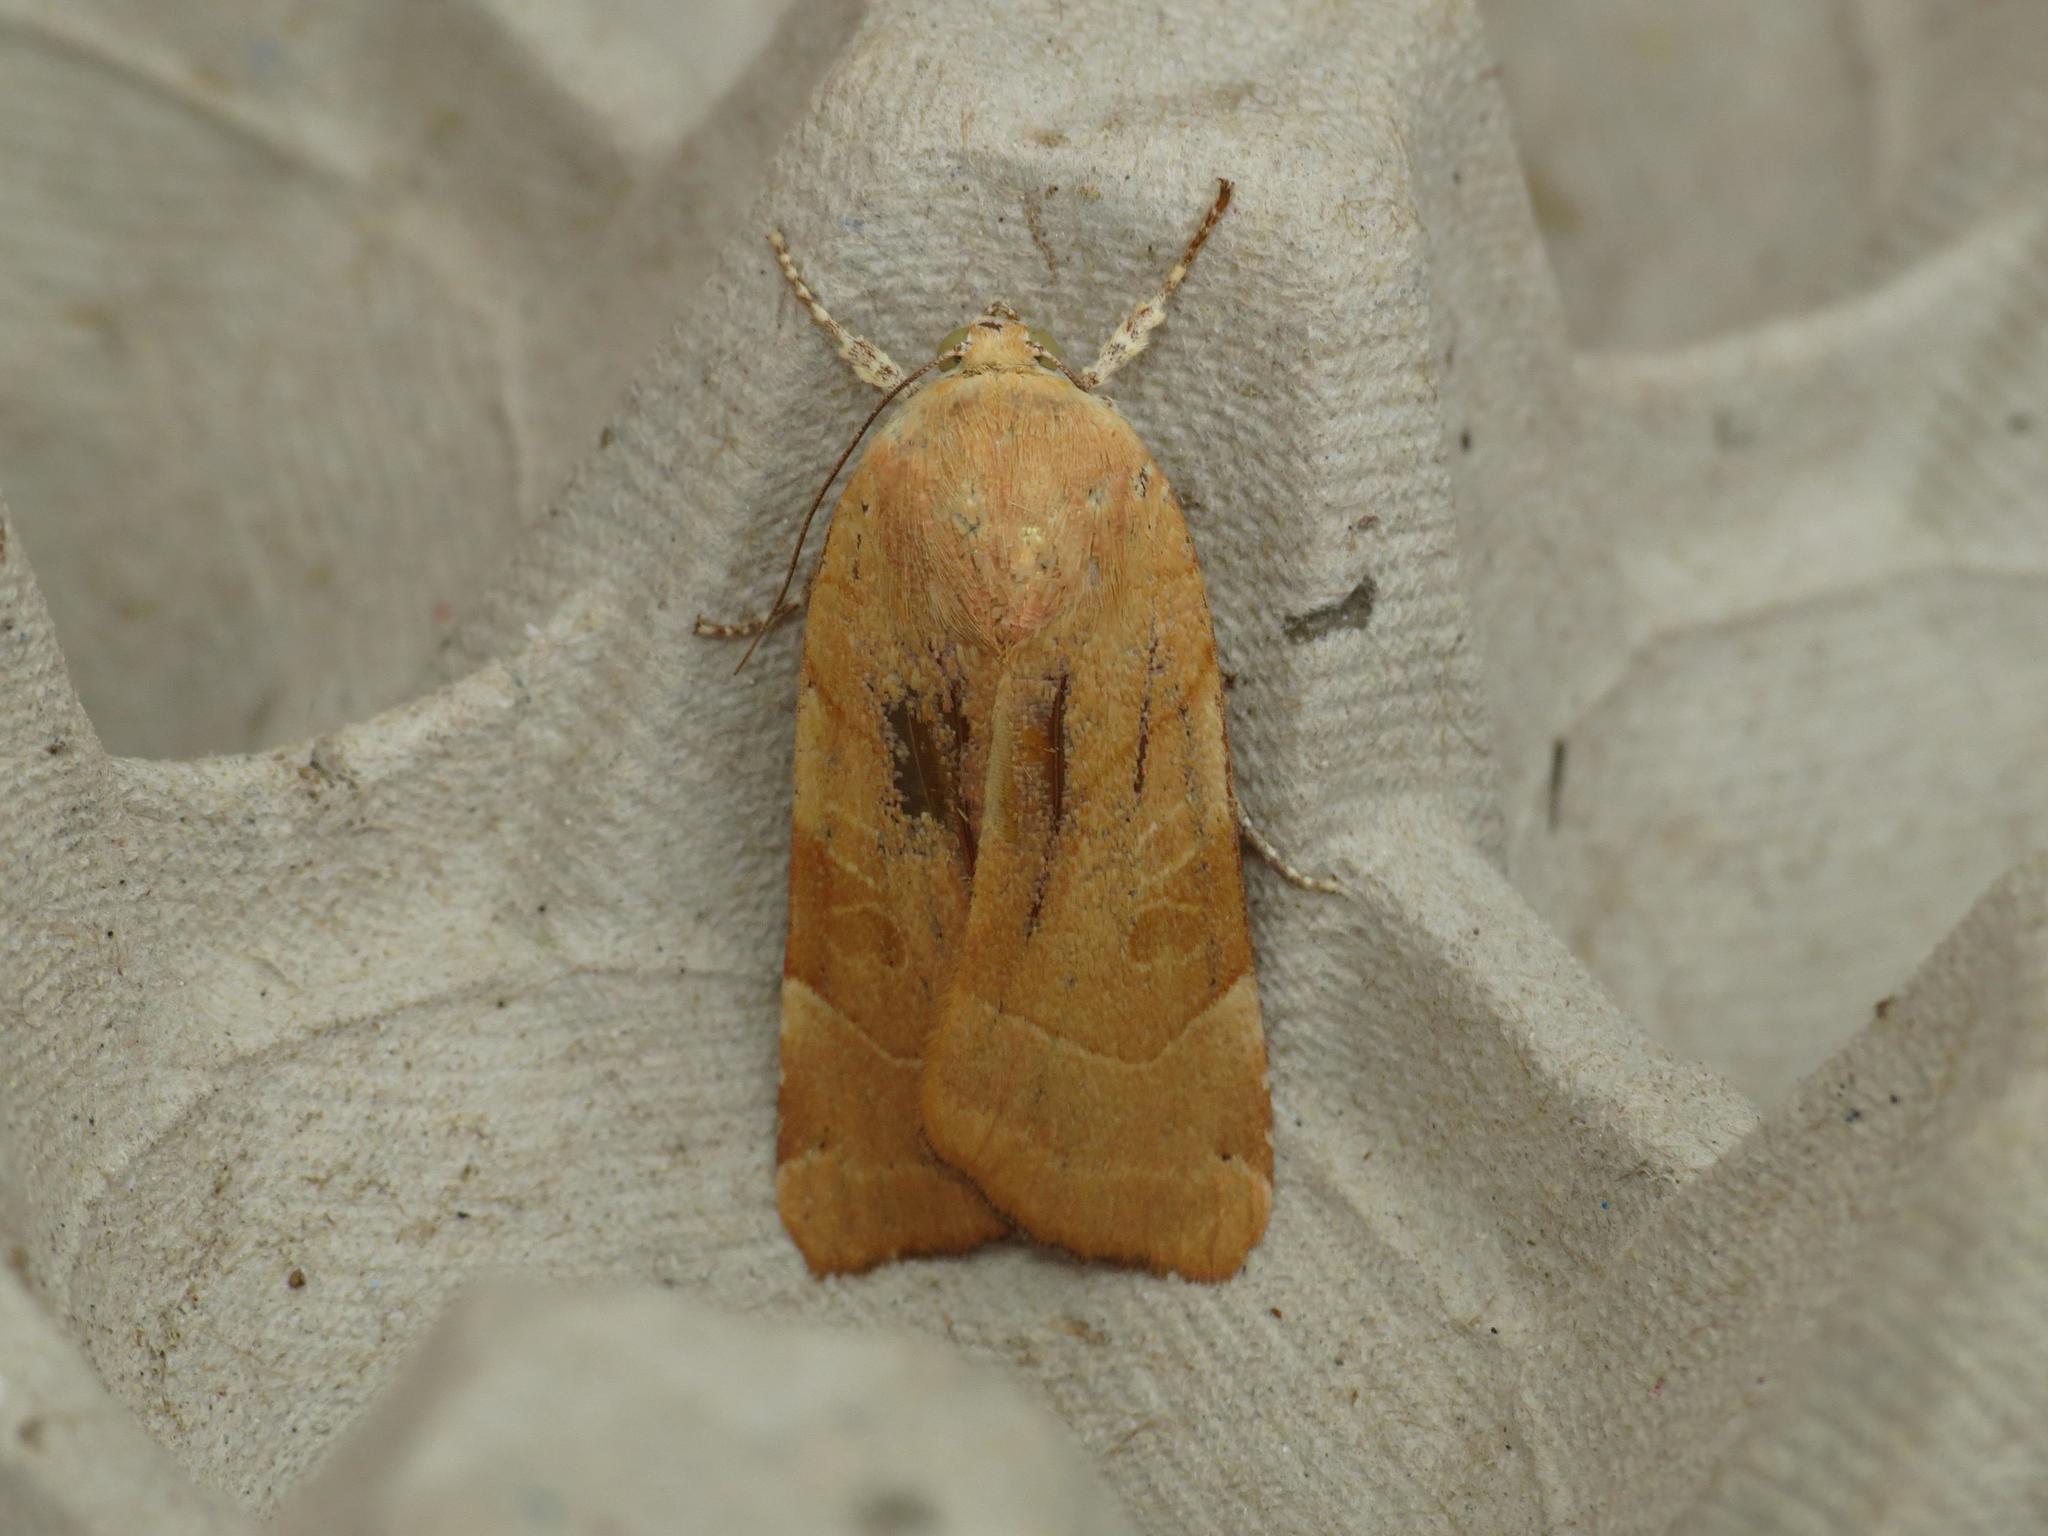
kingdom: Animalia
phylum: Arthropoda
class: Insecta
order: Lepidoptera
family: Noctuidae
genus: Noctua
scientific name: Noctua fimbriata
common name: Broad-bordered yellow underwing
